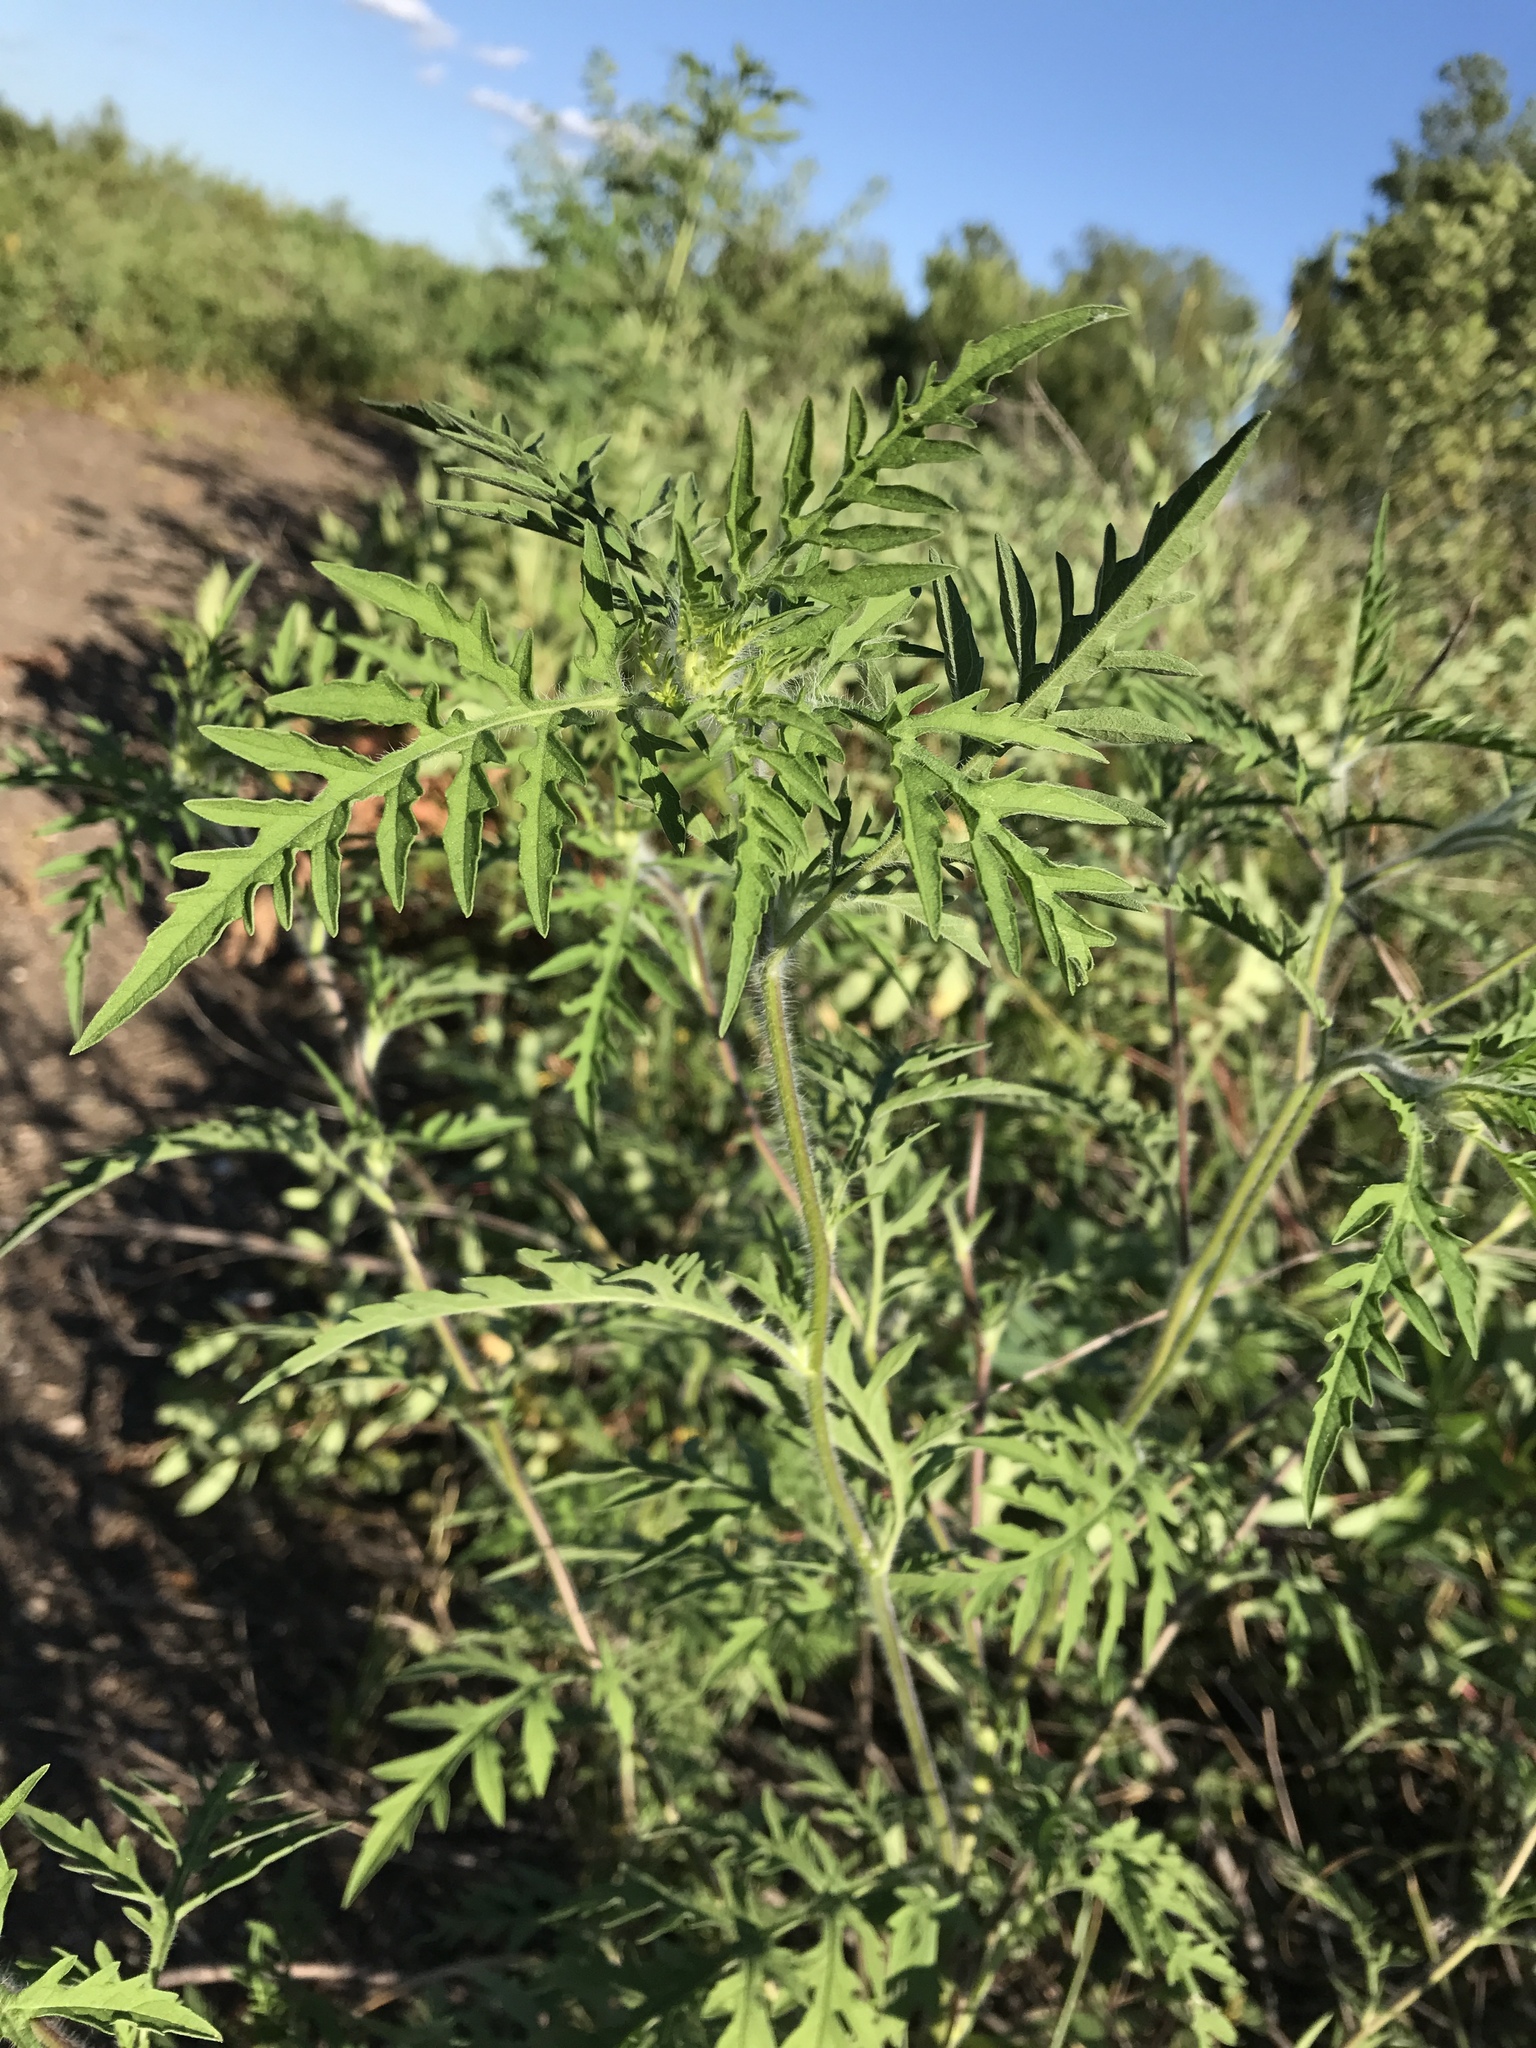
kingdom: Plantae
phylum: Tracheophyta
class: Magnoliopsida
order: Asterales
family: Asteraceae
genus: Ambrosia
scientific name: Ambrosia artemisiifolia
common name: Annual ragweed
